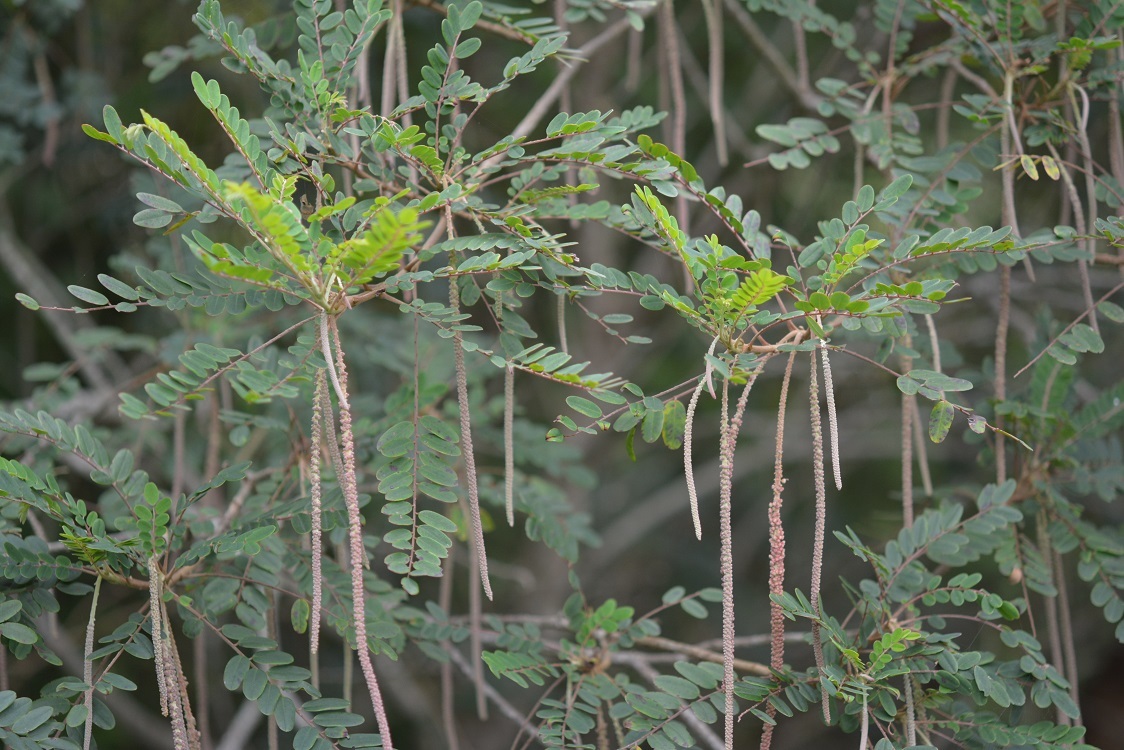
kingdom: Plantae
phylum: Tracheophyta
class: Magnoliopsida
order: Picramniales
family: Picramniaceae
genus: Alvaradoa
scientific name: Alvaradoa amorphoides
